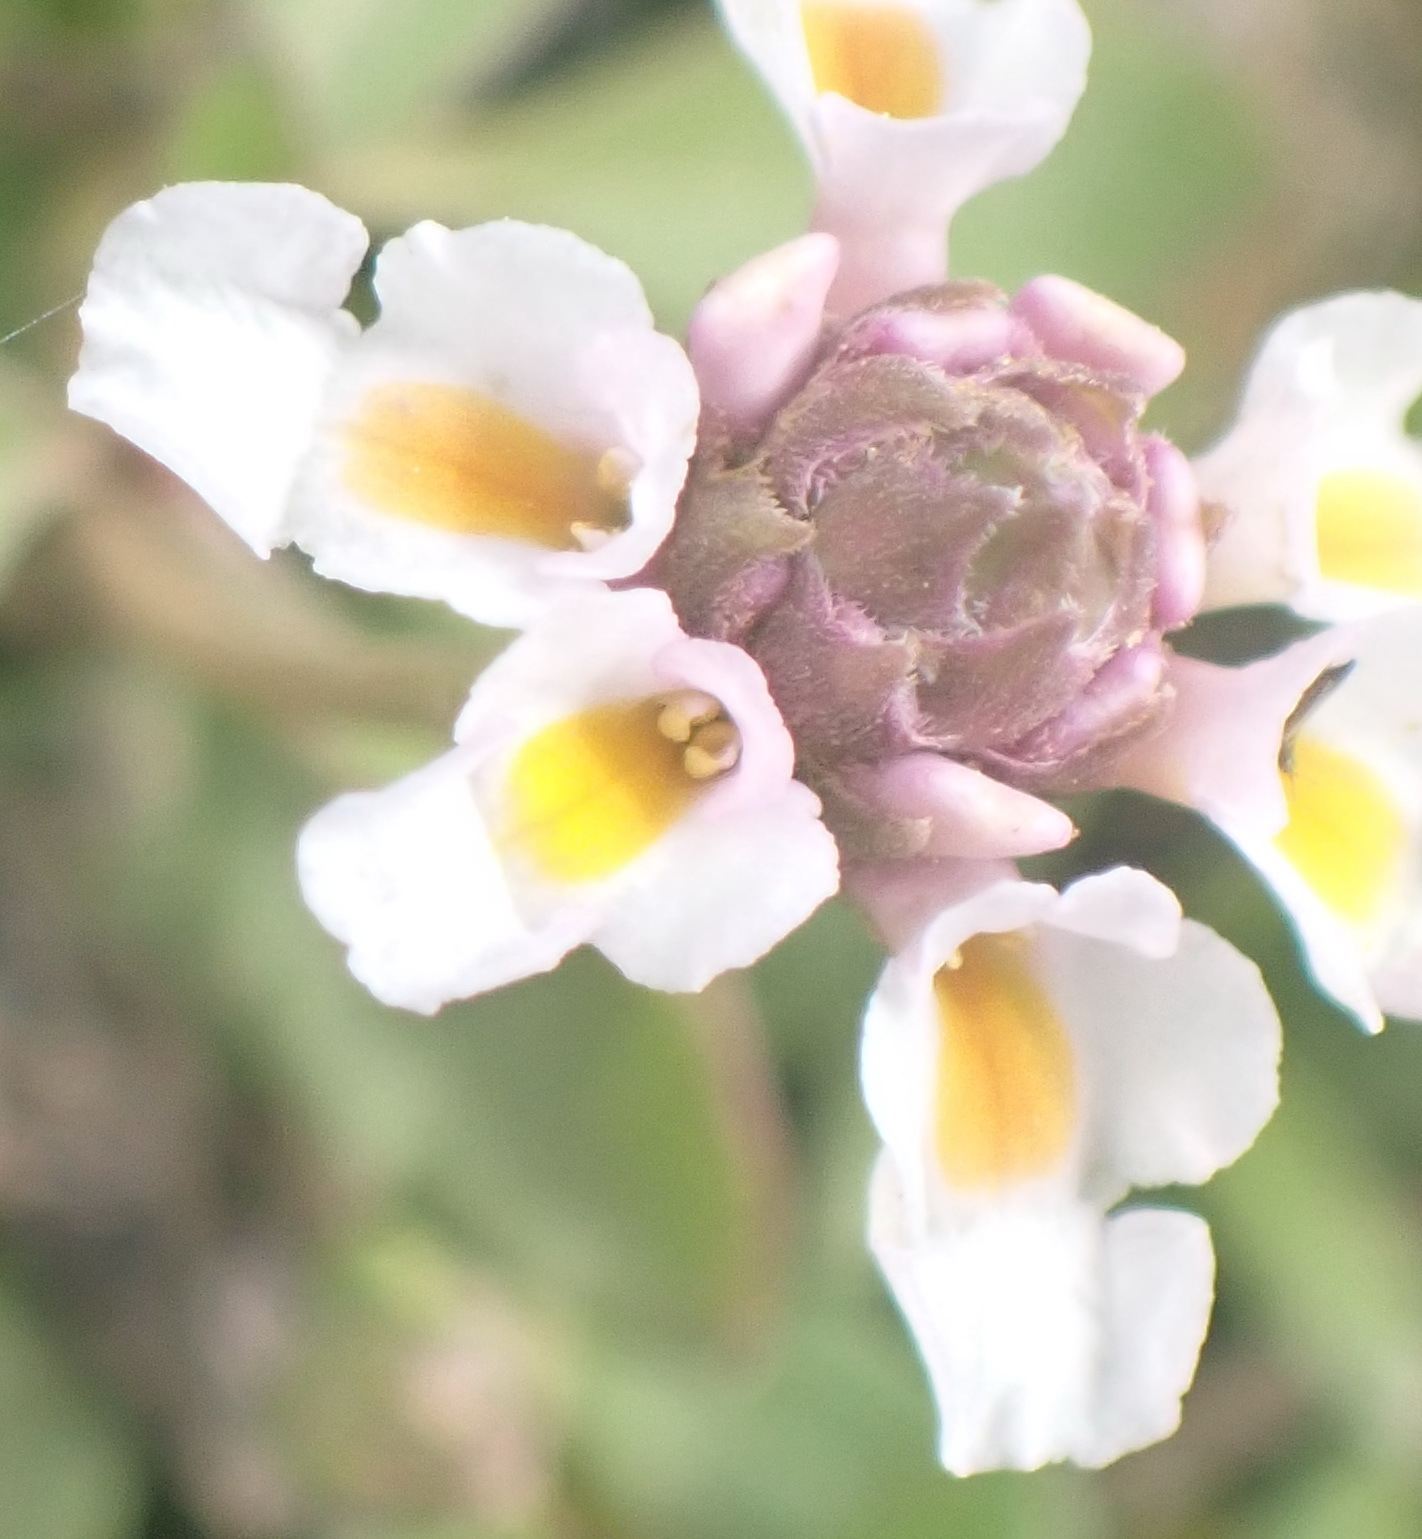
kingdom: Plantae
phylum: Tracheophyta
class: Magnoliopsida
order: Lamiales
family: Verbenaceae
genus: Phyla
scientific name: Phyla nodiflora
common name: Frogfruit
